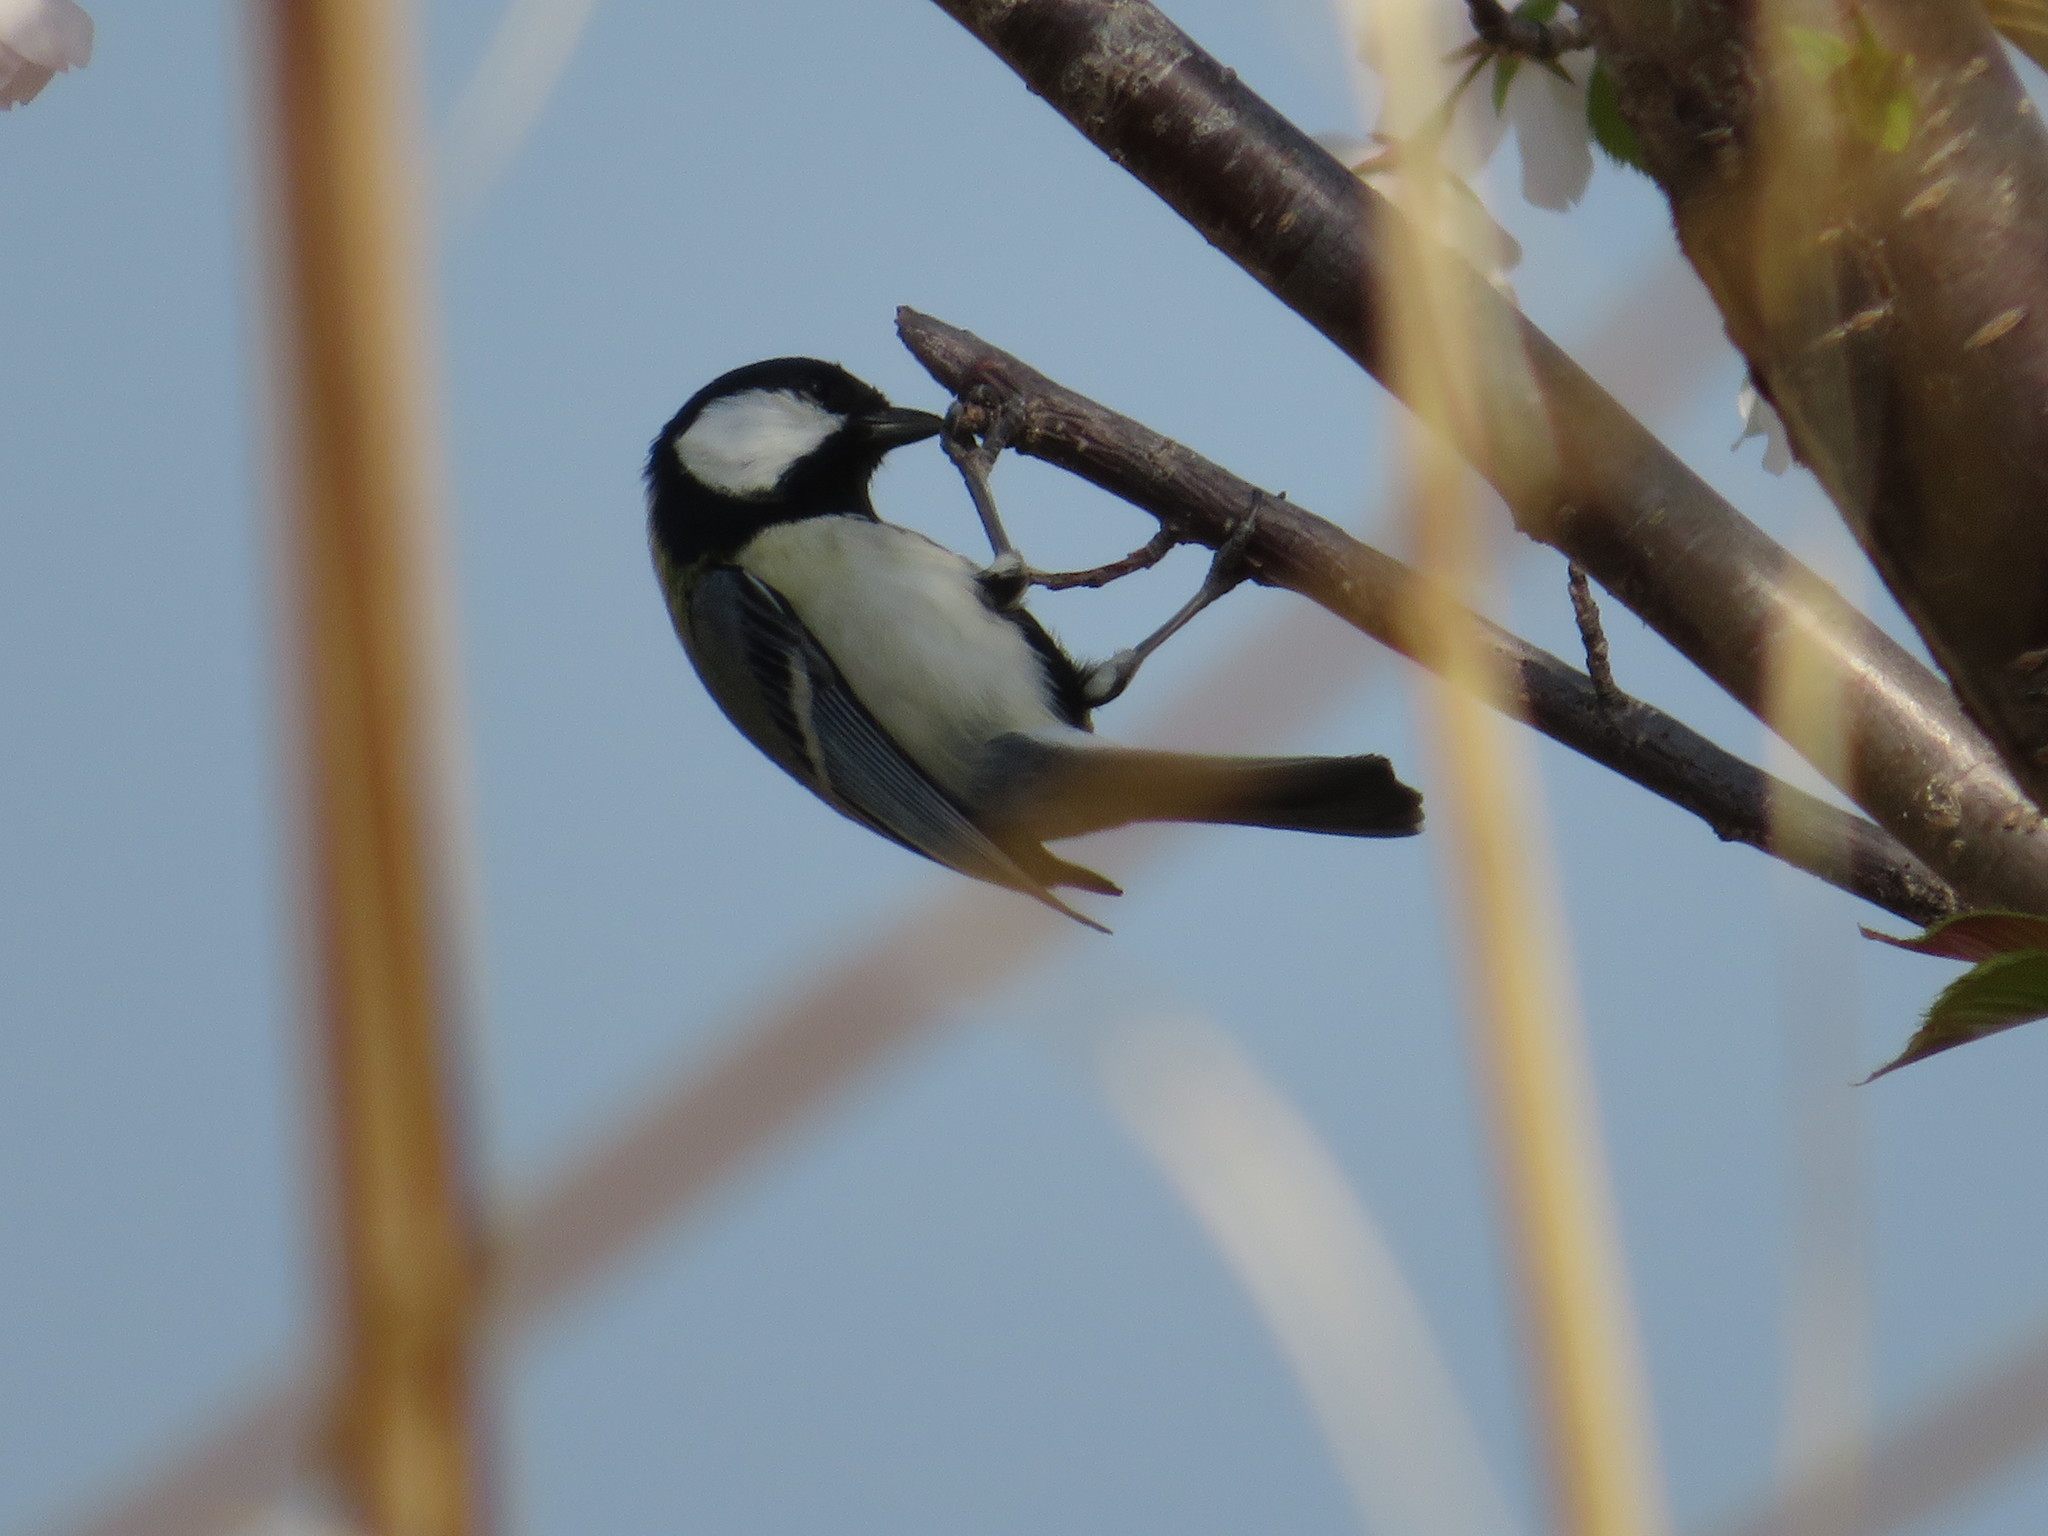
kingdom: Animalia
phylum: Chordata
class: Aves
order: Passeriformes
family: Paridae
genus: Parus
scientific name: Parus minor
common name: Japanese tit
